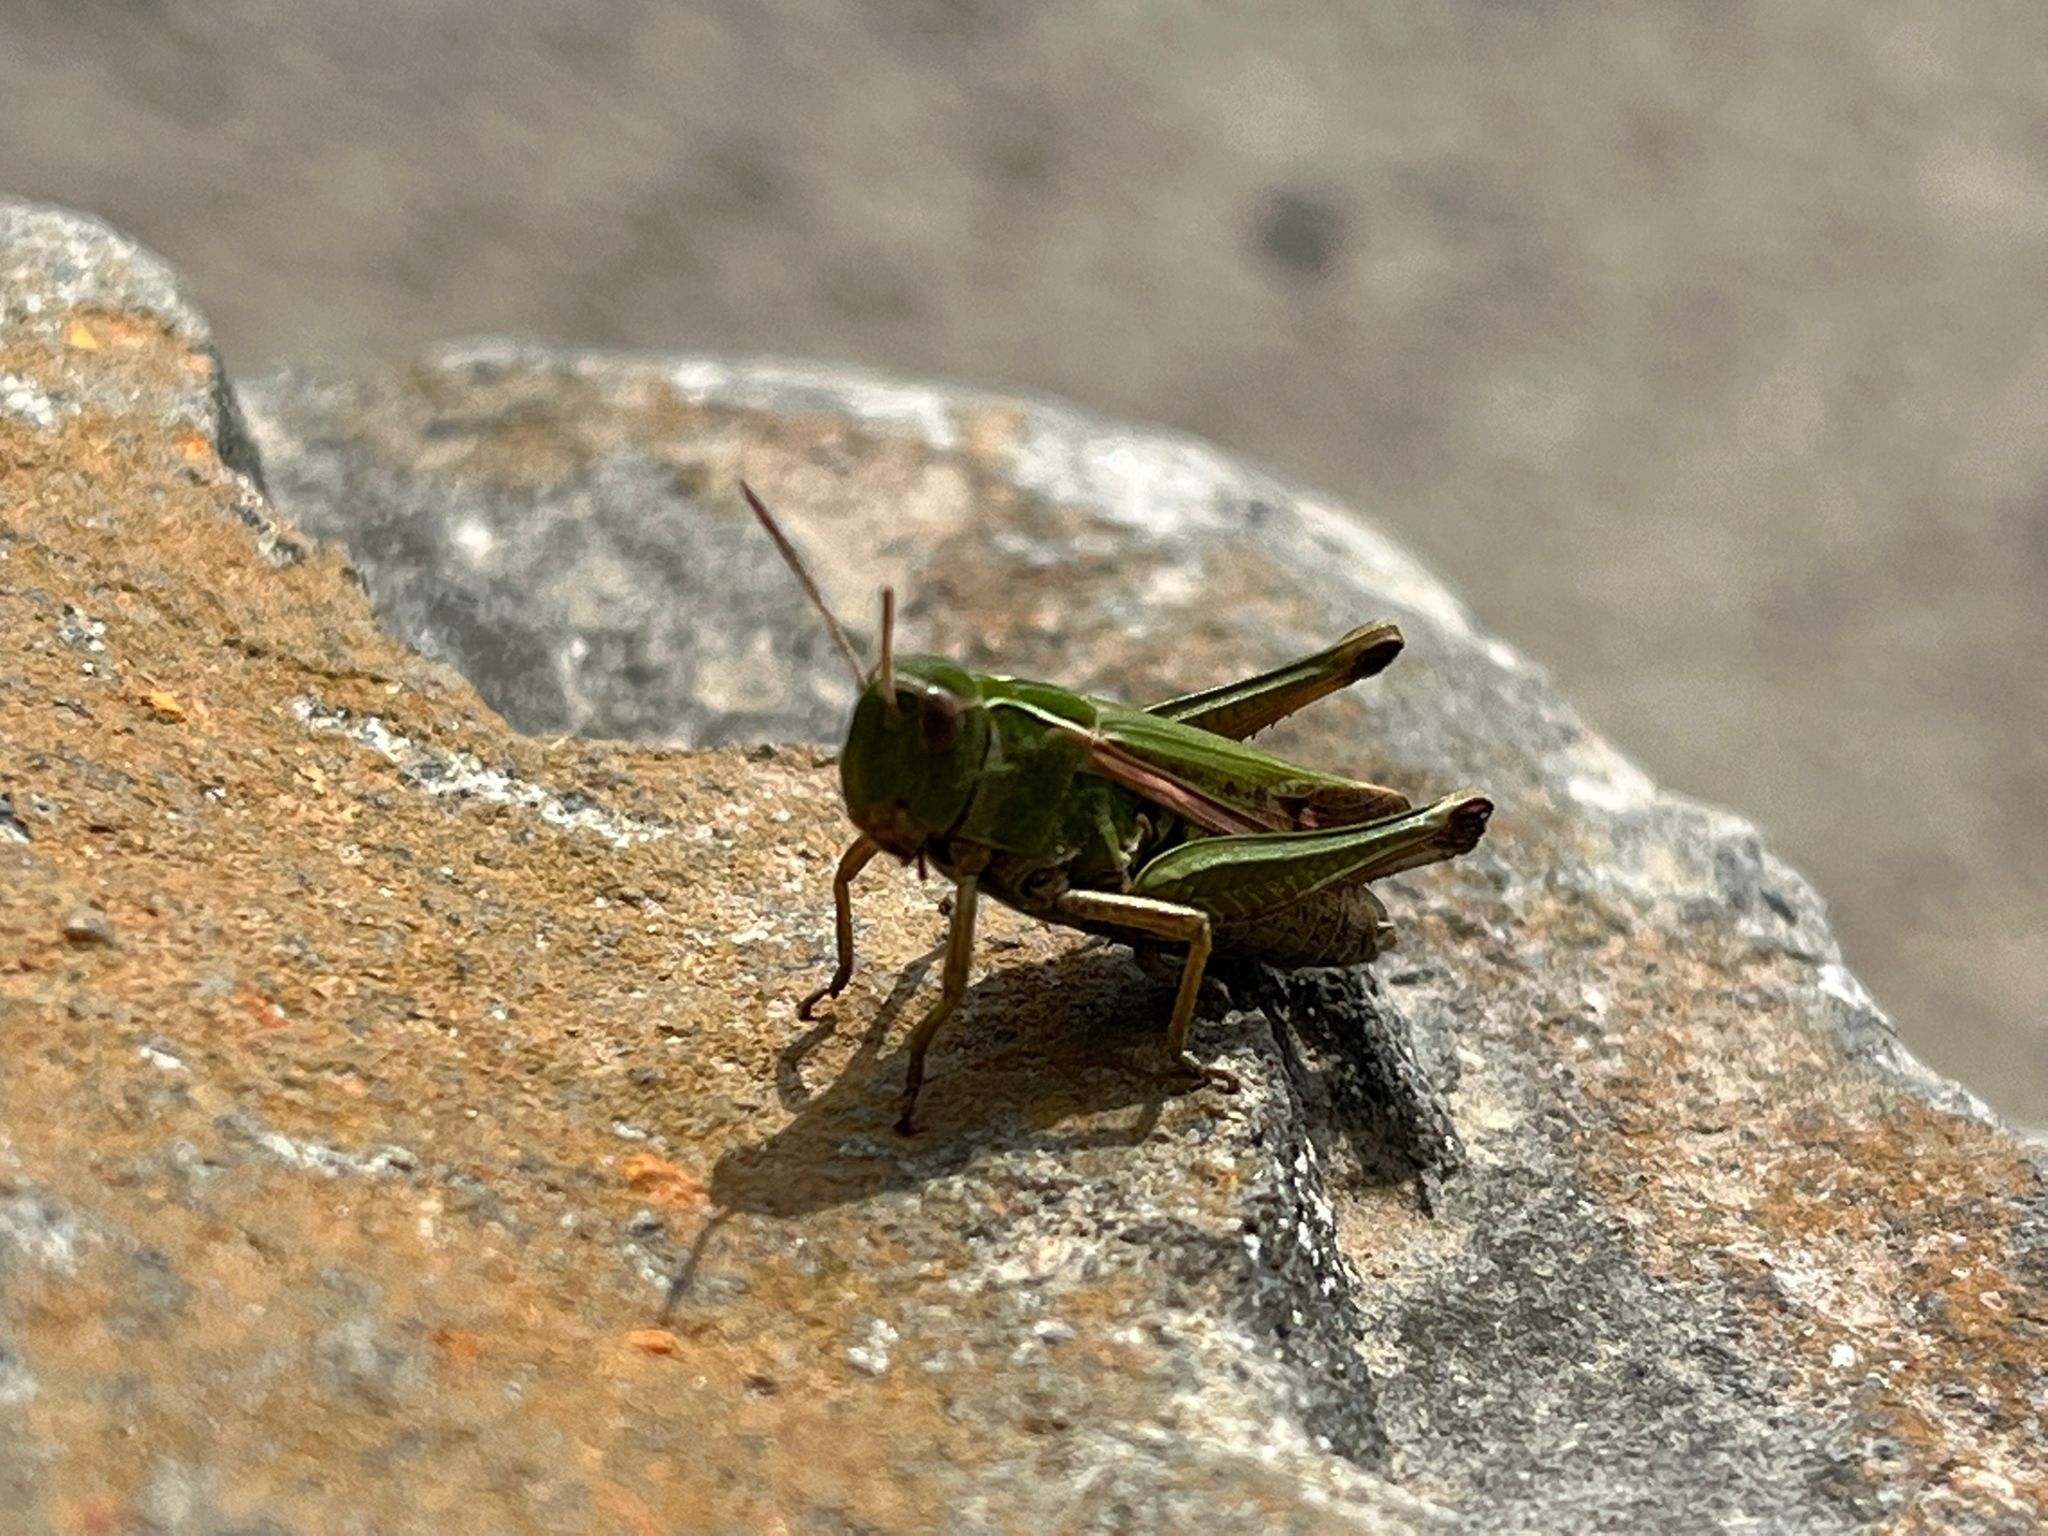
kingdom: Animalia
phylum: Arthropoda
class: Insecta
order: Orthoptera
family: Acrididae
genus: Omocestus
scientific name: Omocestus viridulus
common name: Common green grasshopper
